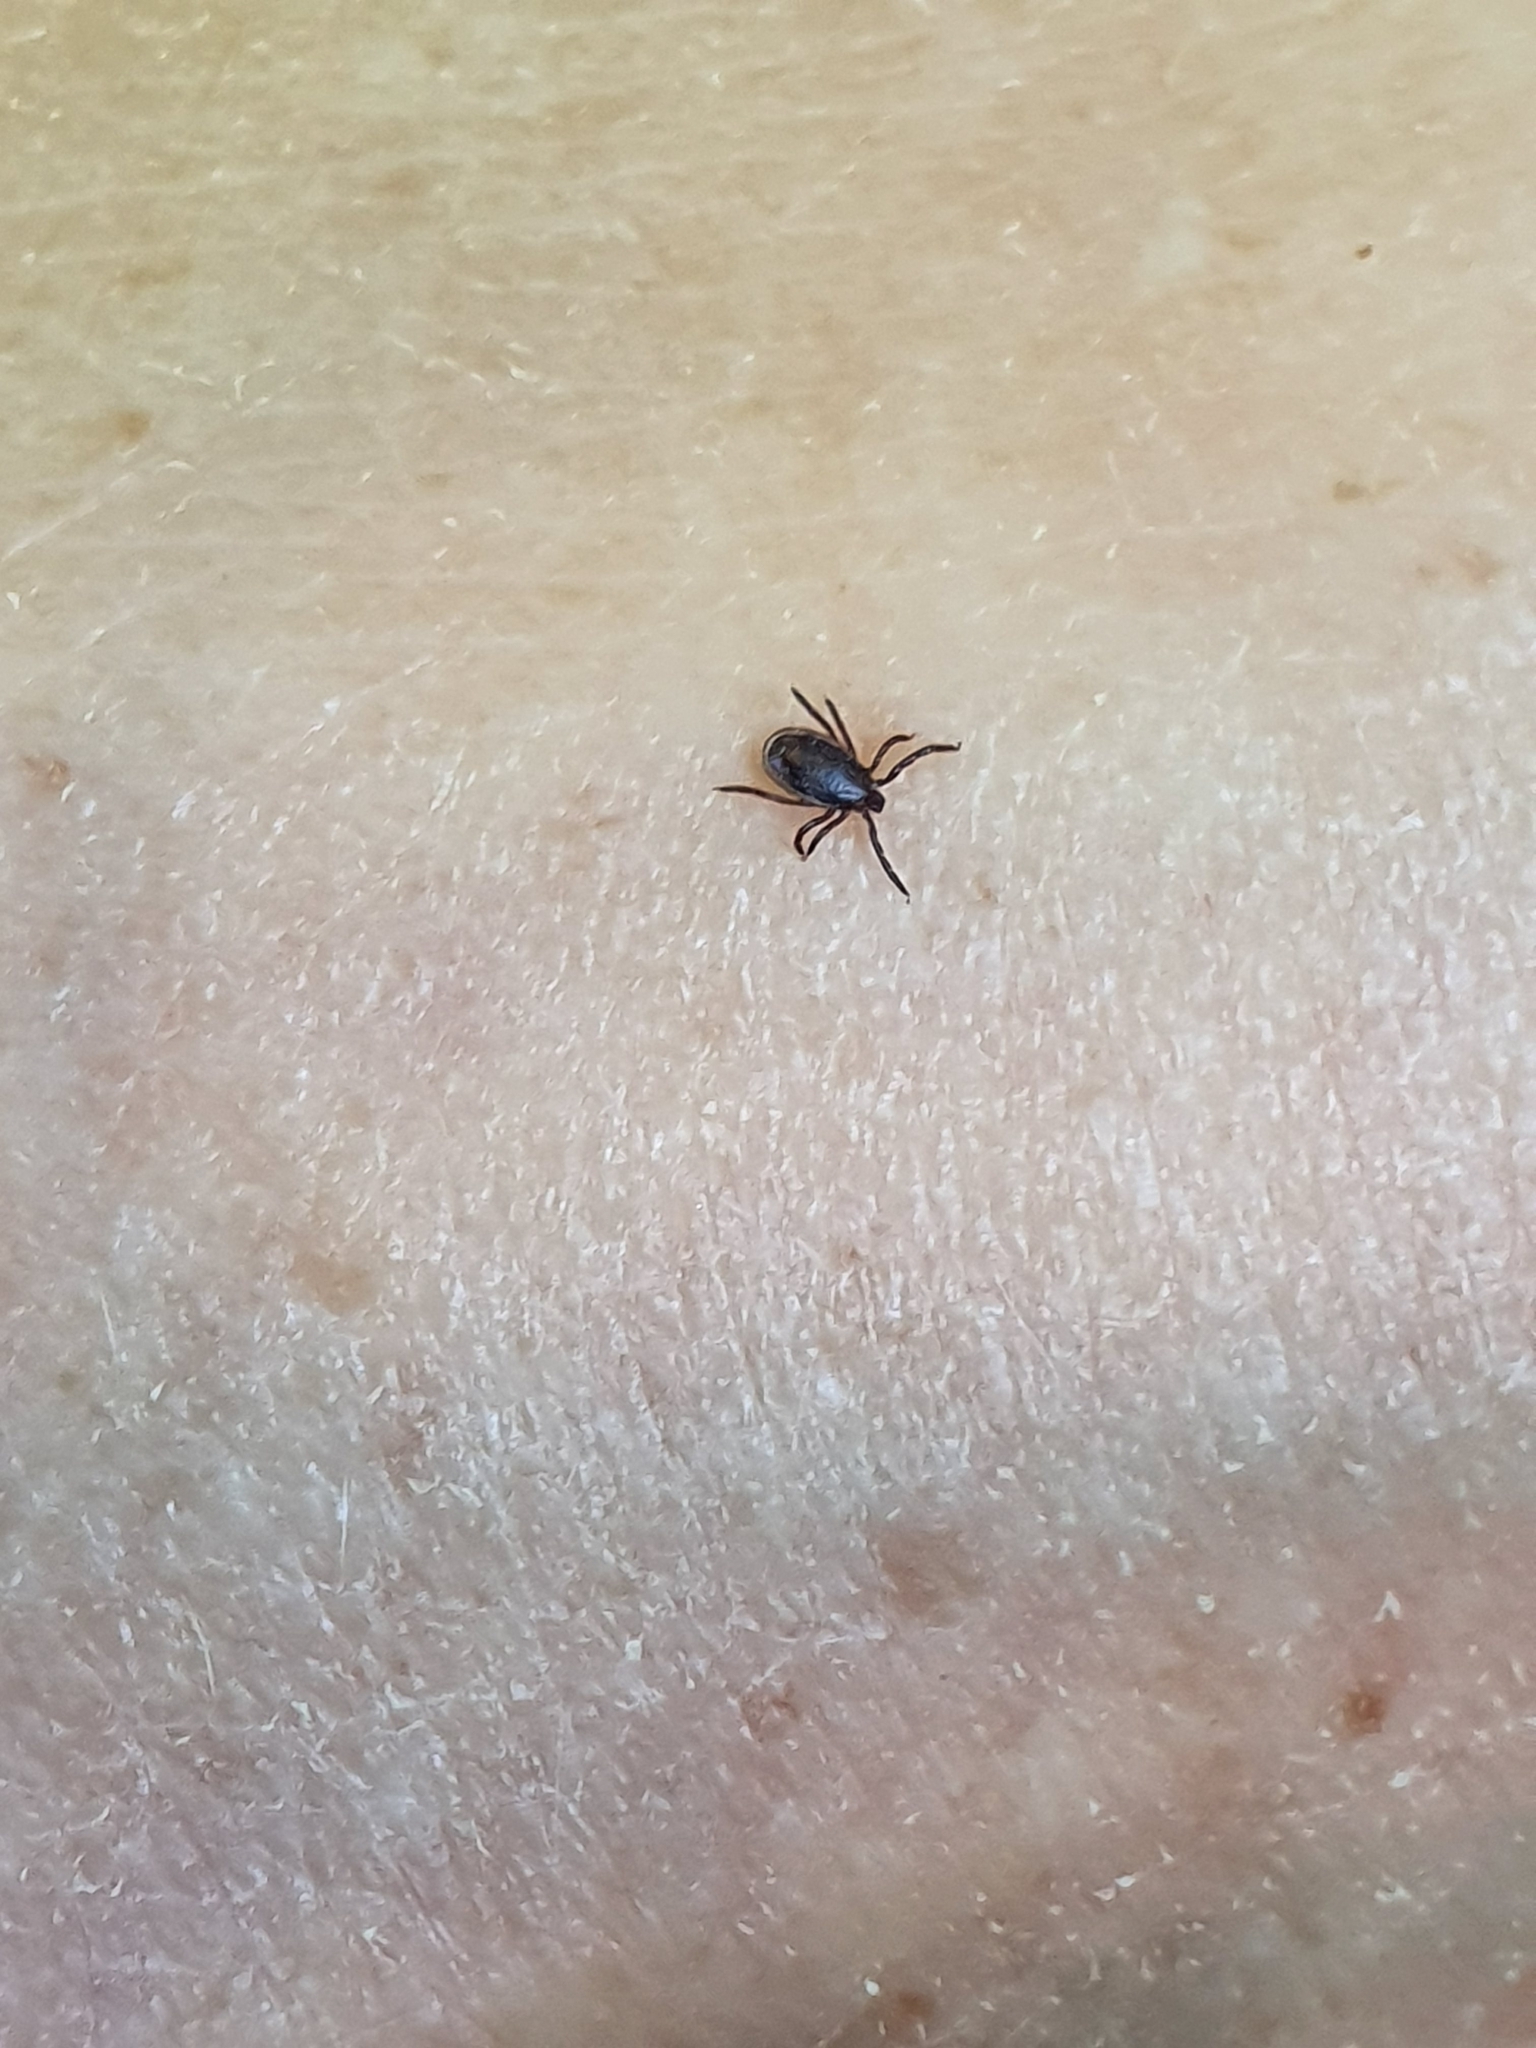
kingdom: Animalia
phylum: Arthropoda
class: Arachnida
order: Ixodida
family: Ixodidae
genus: Ixodes
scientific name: Ixodes ricinus
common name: Castor bean tick
